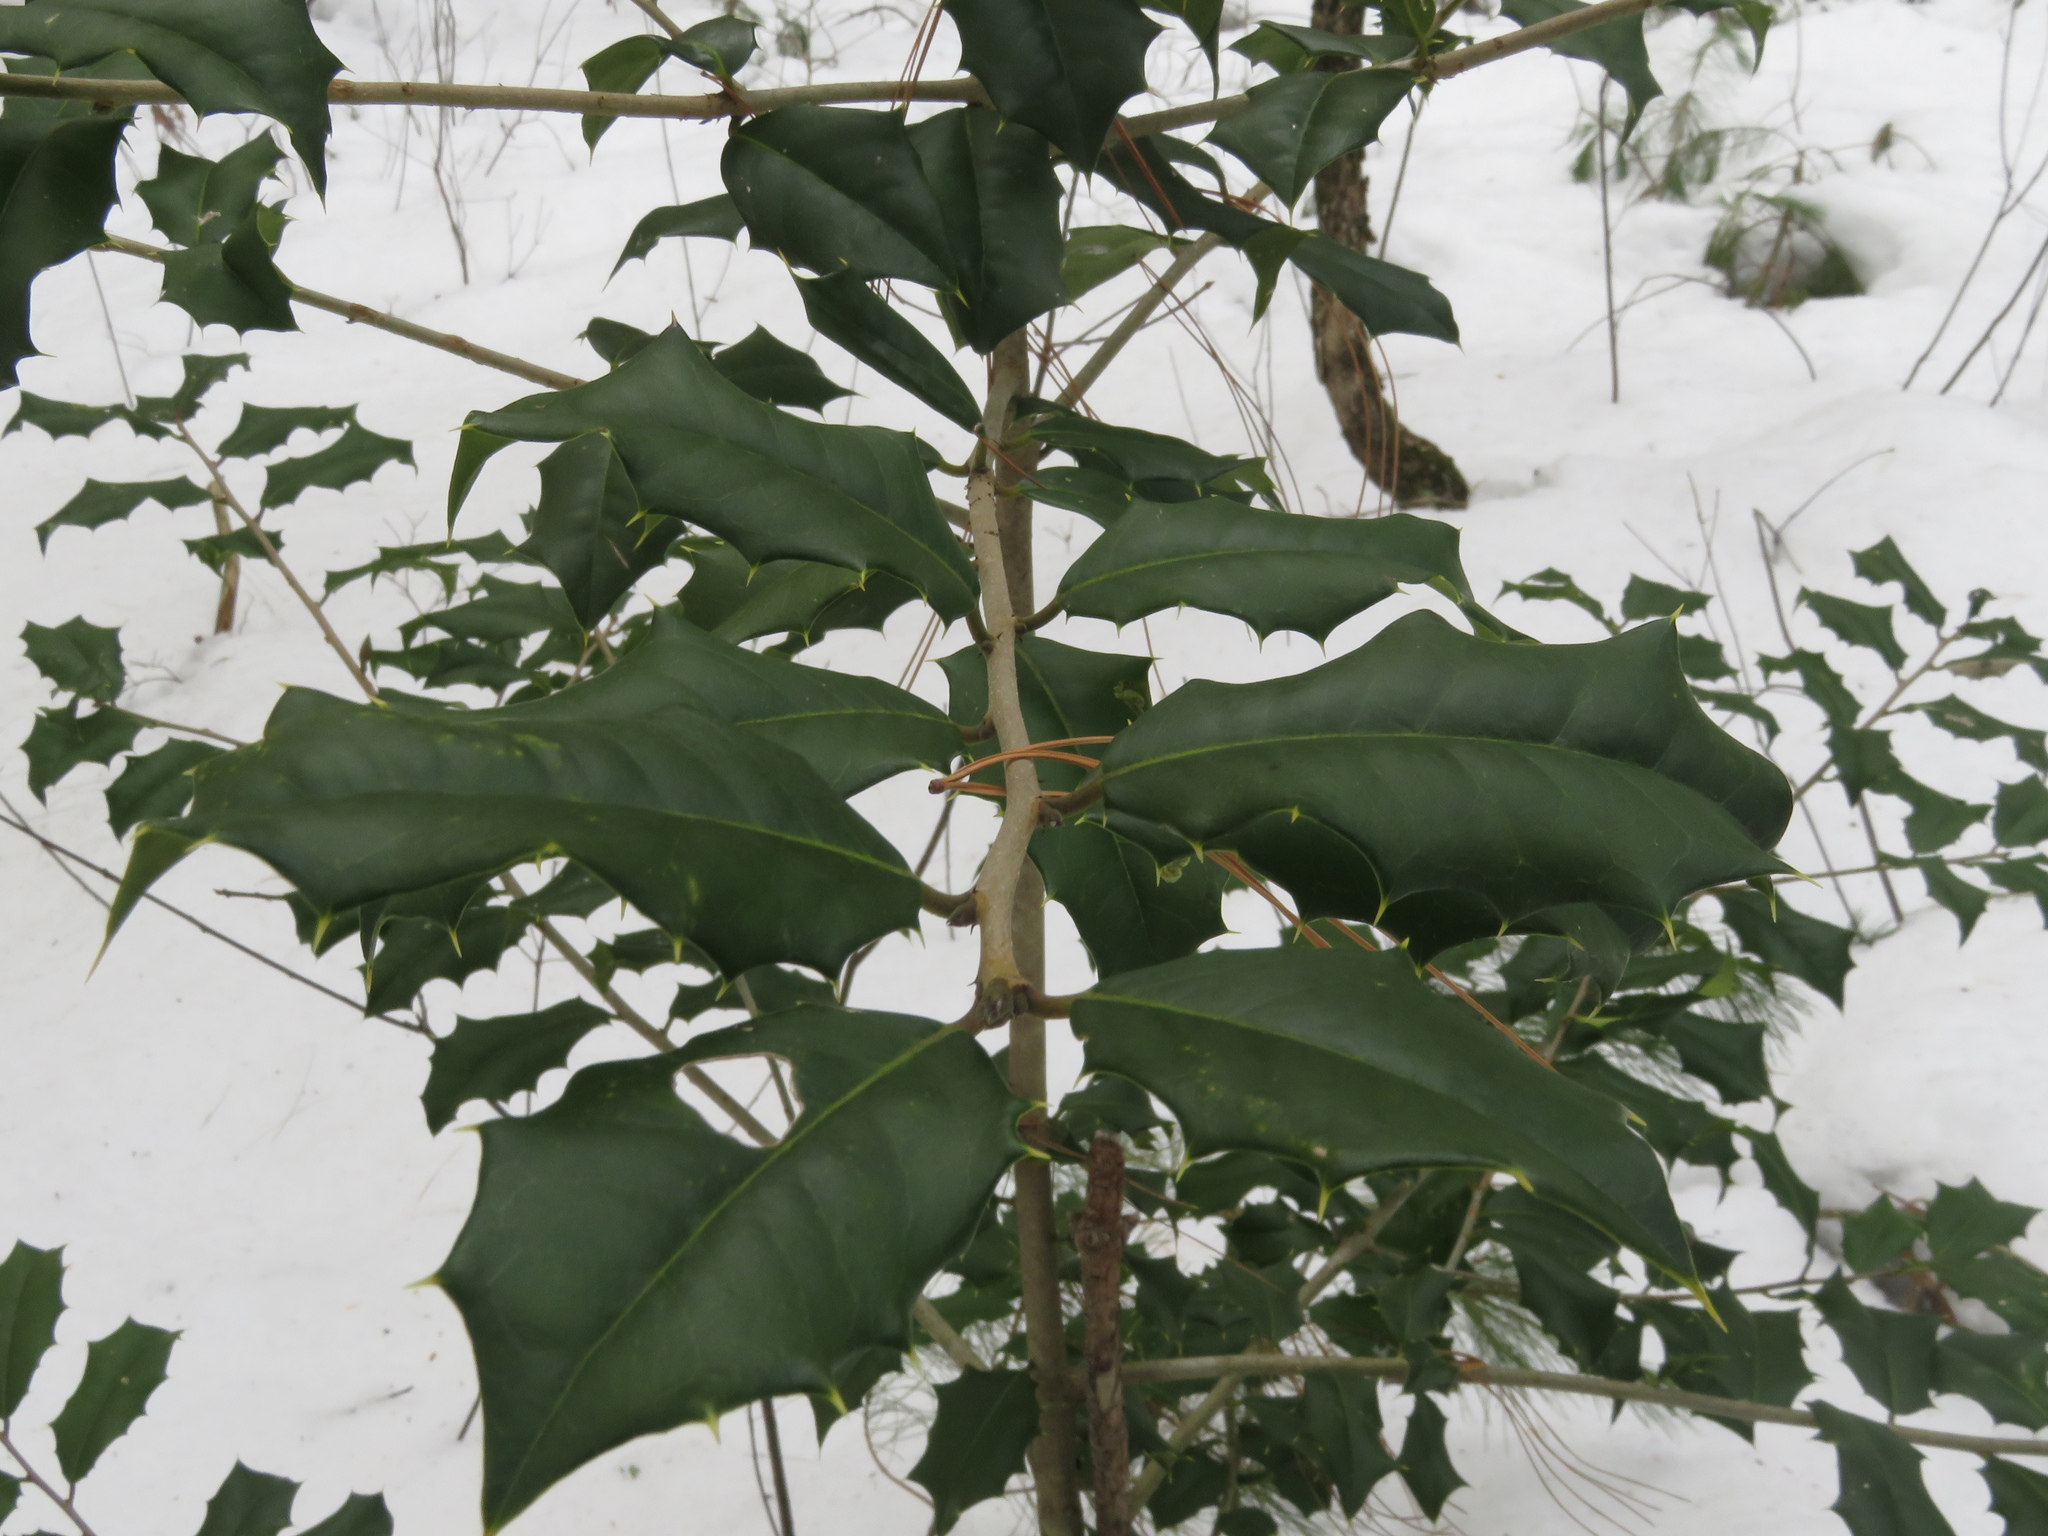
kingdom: Plantae
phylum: Tracheophyta
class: Magnoliopsida
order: Aquifoliales
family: Aquifoliaceae
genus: Ilex
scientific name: Ilex opaca
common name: American holly
